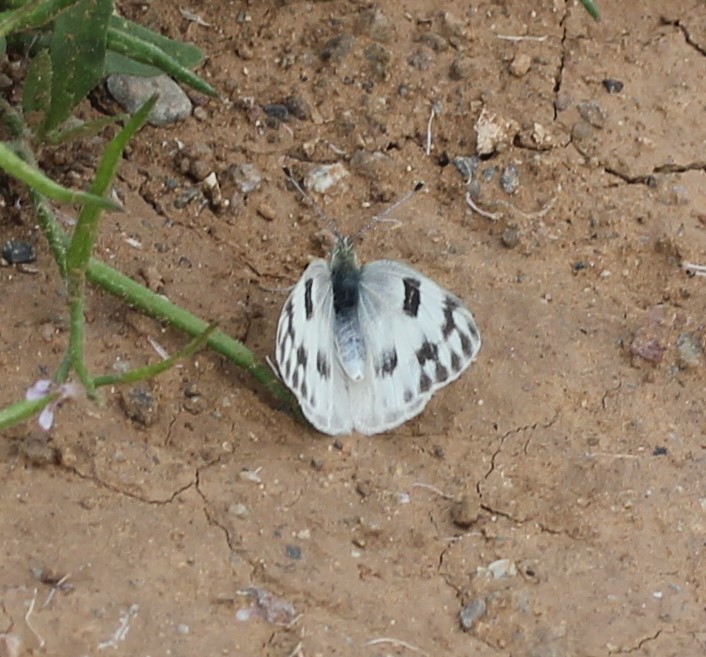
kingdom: Animalia
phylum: Arthropoda
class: Insecta
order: Lepidoptera
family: Pieridae
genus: Pontia
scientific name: Pontia protodice
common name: Checkered white
